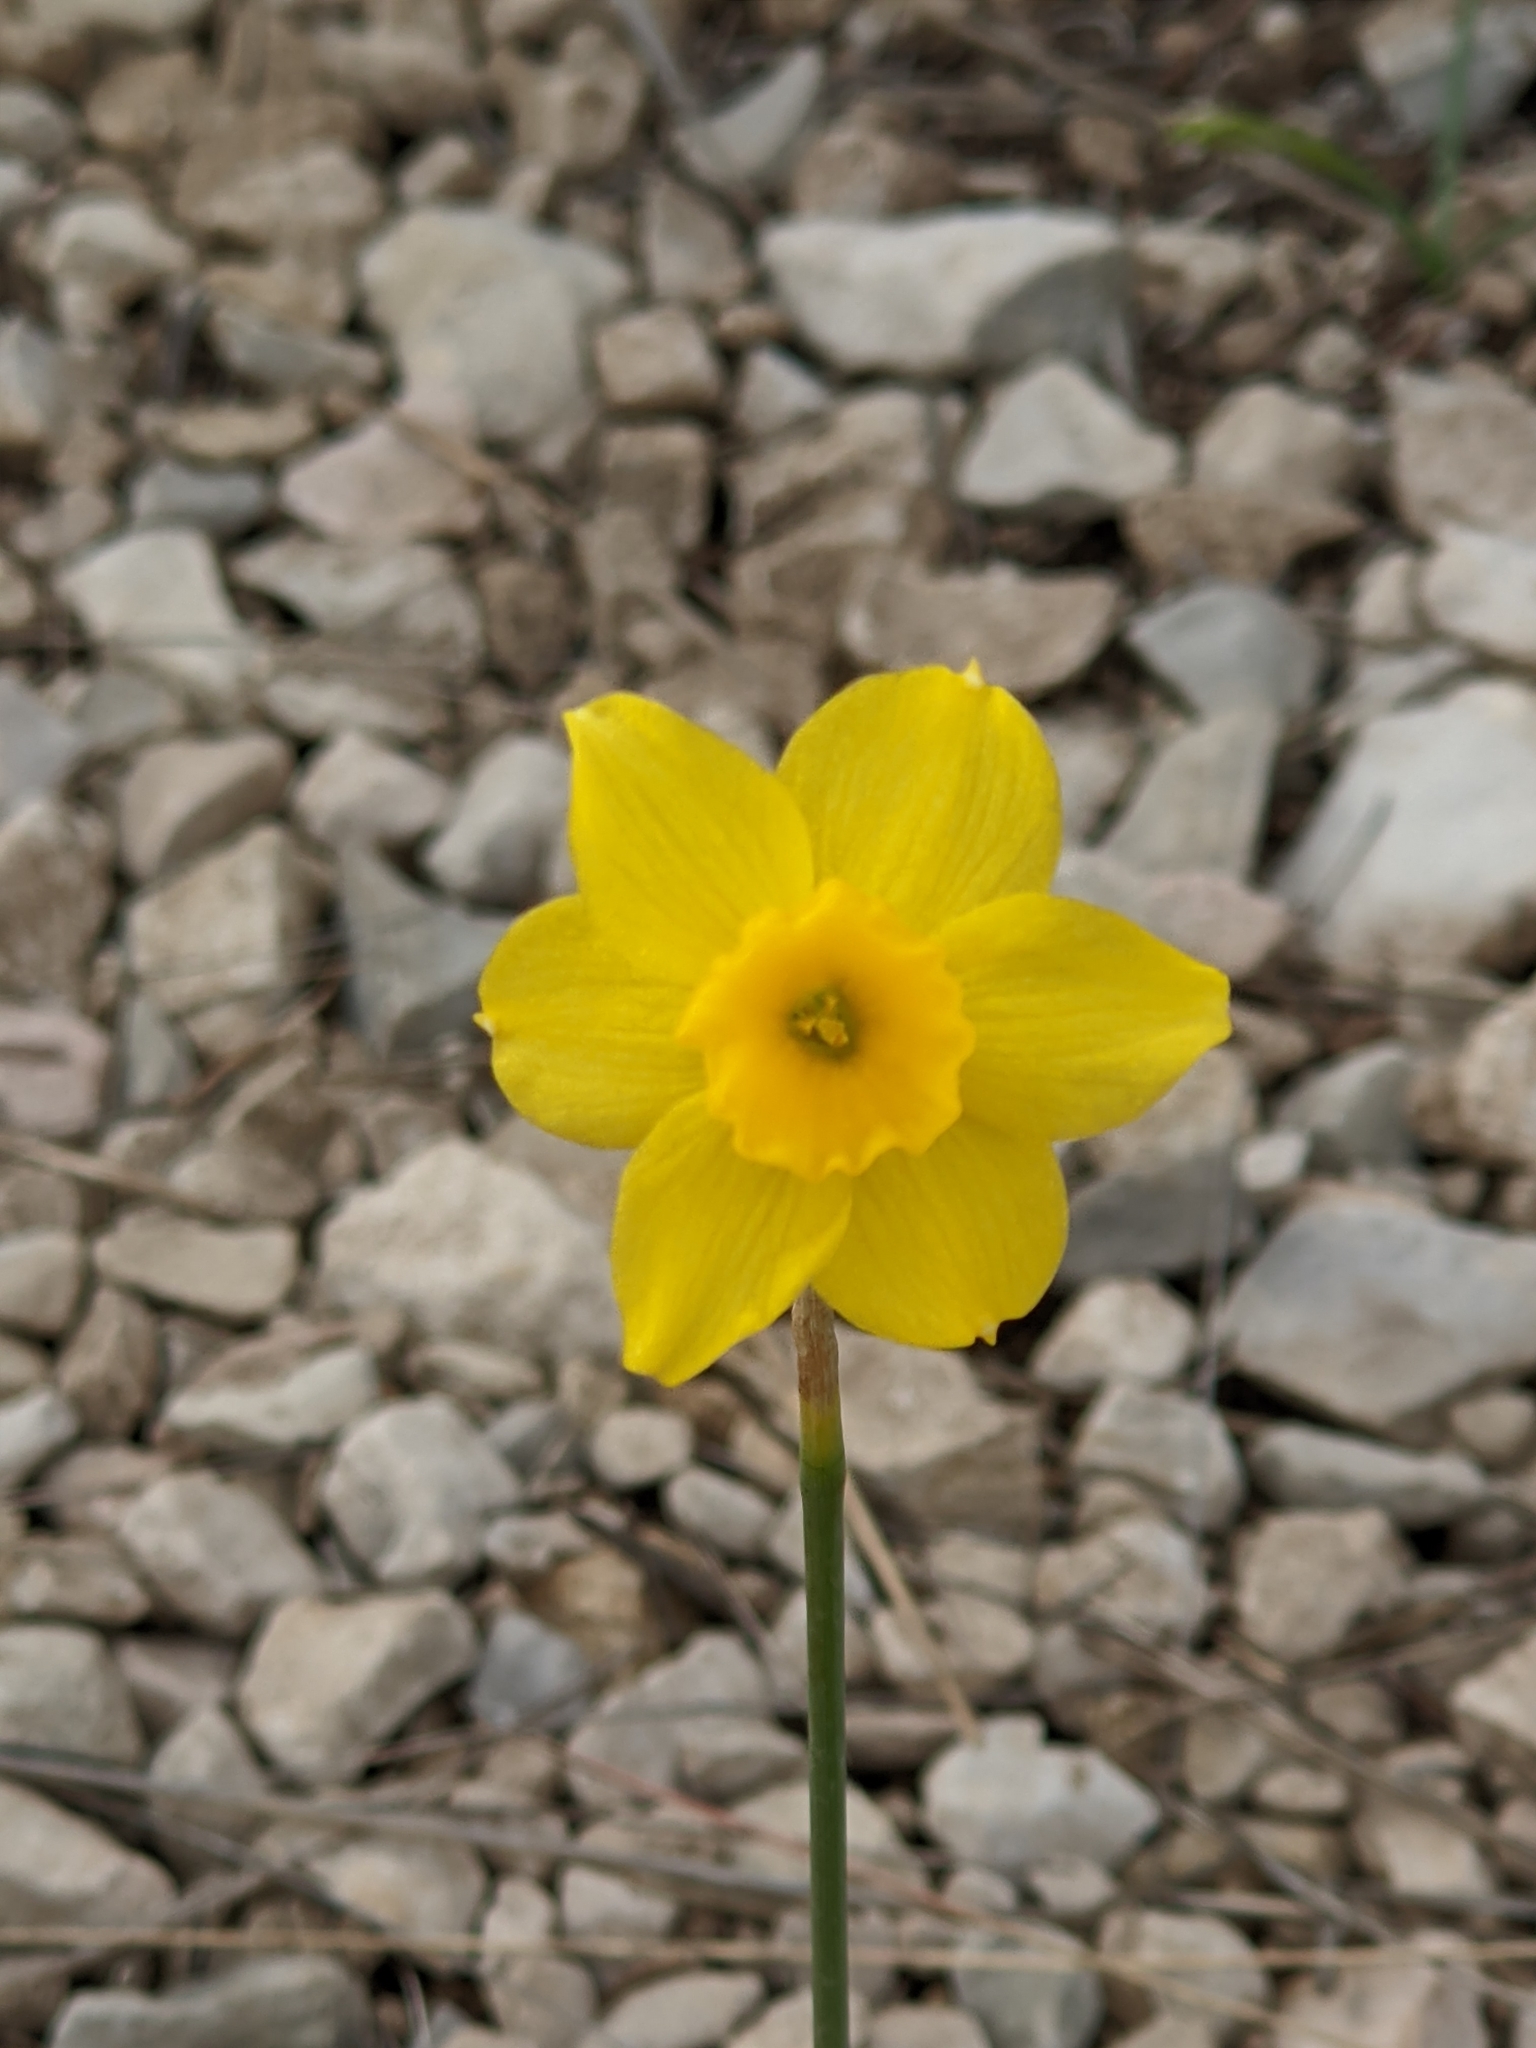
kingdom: Plantae
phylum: Tracheophyta
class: Liliopsida
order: Asparagales
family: Amaryllidaceae
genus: Narcissus
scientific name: Narcissus assoanus
